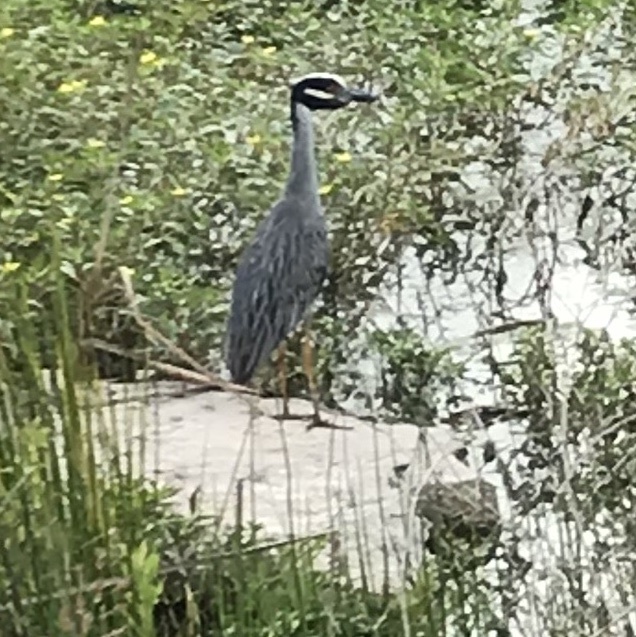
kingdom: Animalia
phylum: Chordata
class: Aves
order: Pelecaniformes
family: Ardeidae
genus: Nyctanassa
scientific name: Nyctanassa violacea
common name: Yellow-crowned night heron
